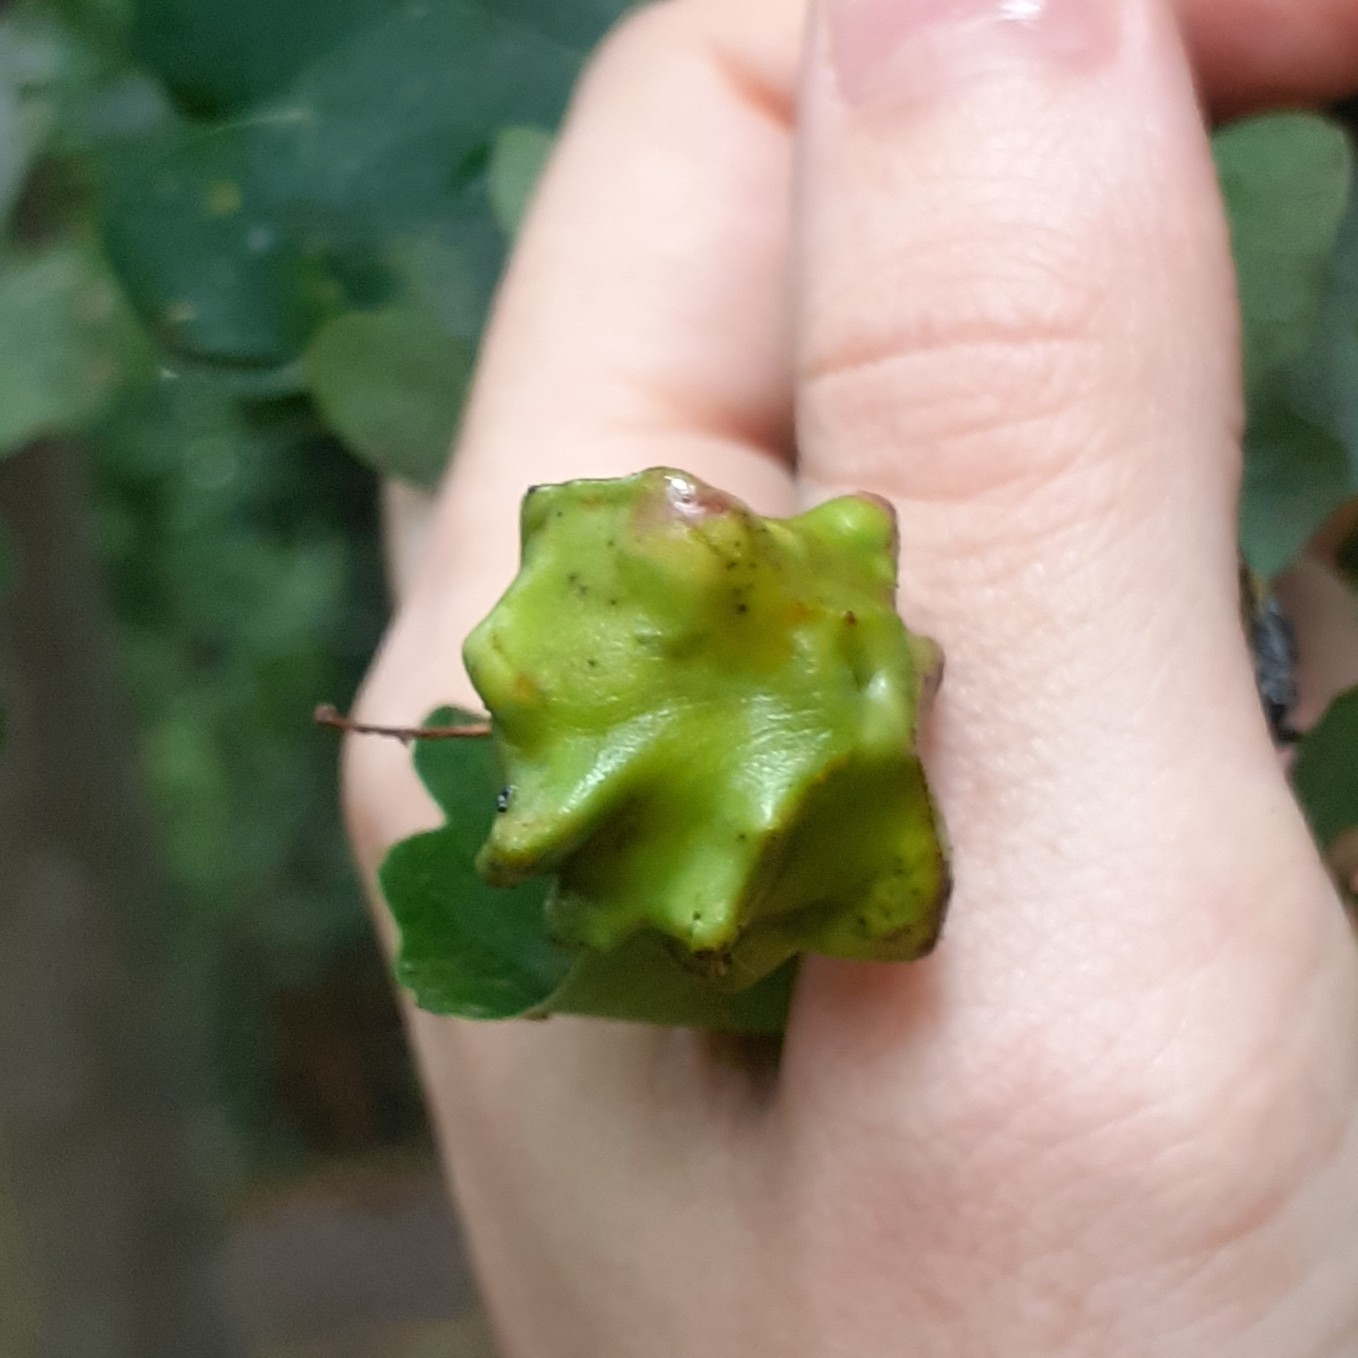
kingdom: Animalia
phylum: Arthropoda
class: Insecta
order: Hymenoptera
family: Cynipidae
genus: Andricus
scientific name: Andricus quercuscalicis
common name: Knopper gall
